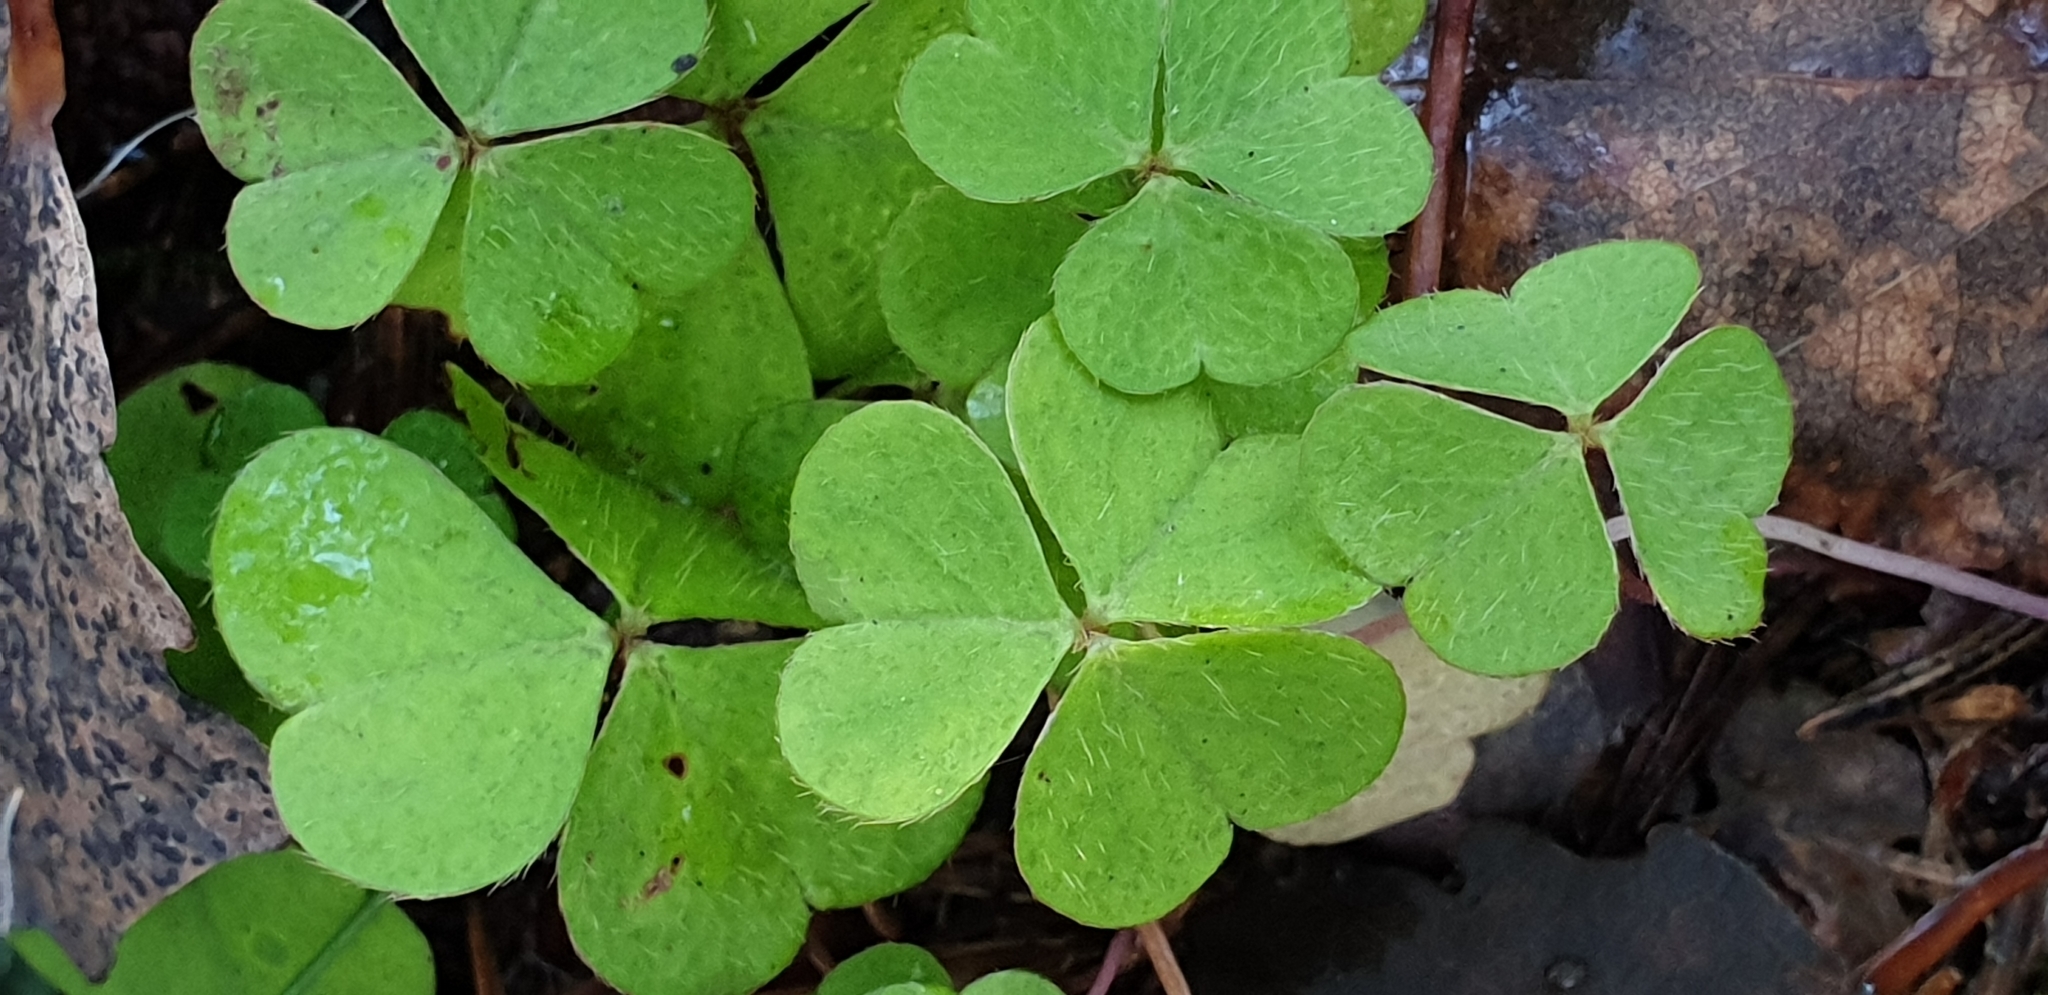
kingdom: Plantae
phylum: Tracheophyta
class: Magnoliopsida
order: Oxalidales
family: Oxalidaceae
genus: Oxalis
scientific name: Oxalis acetosella
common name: Wood-sorrel
